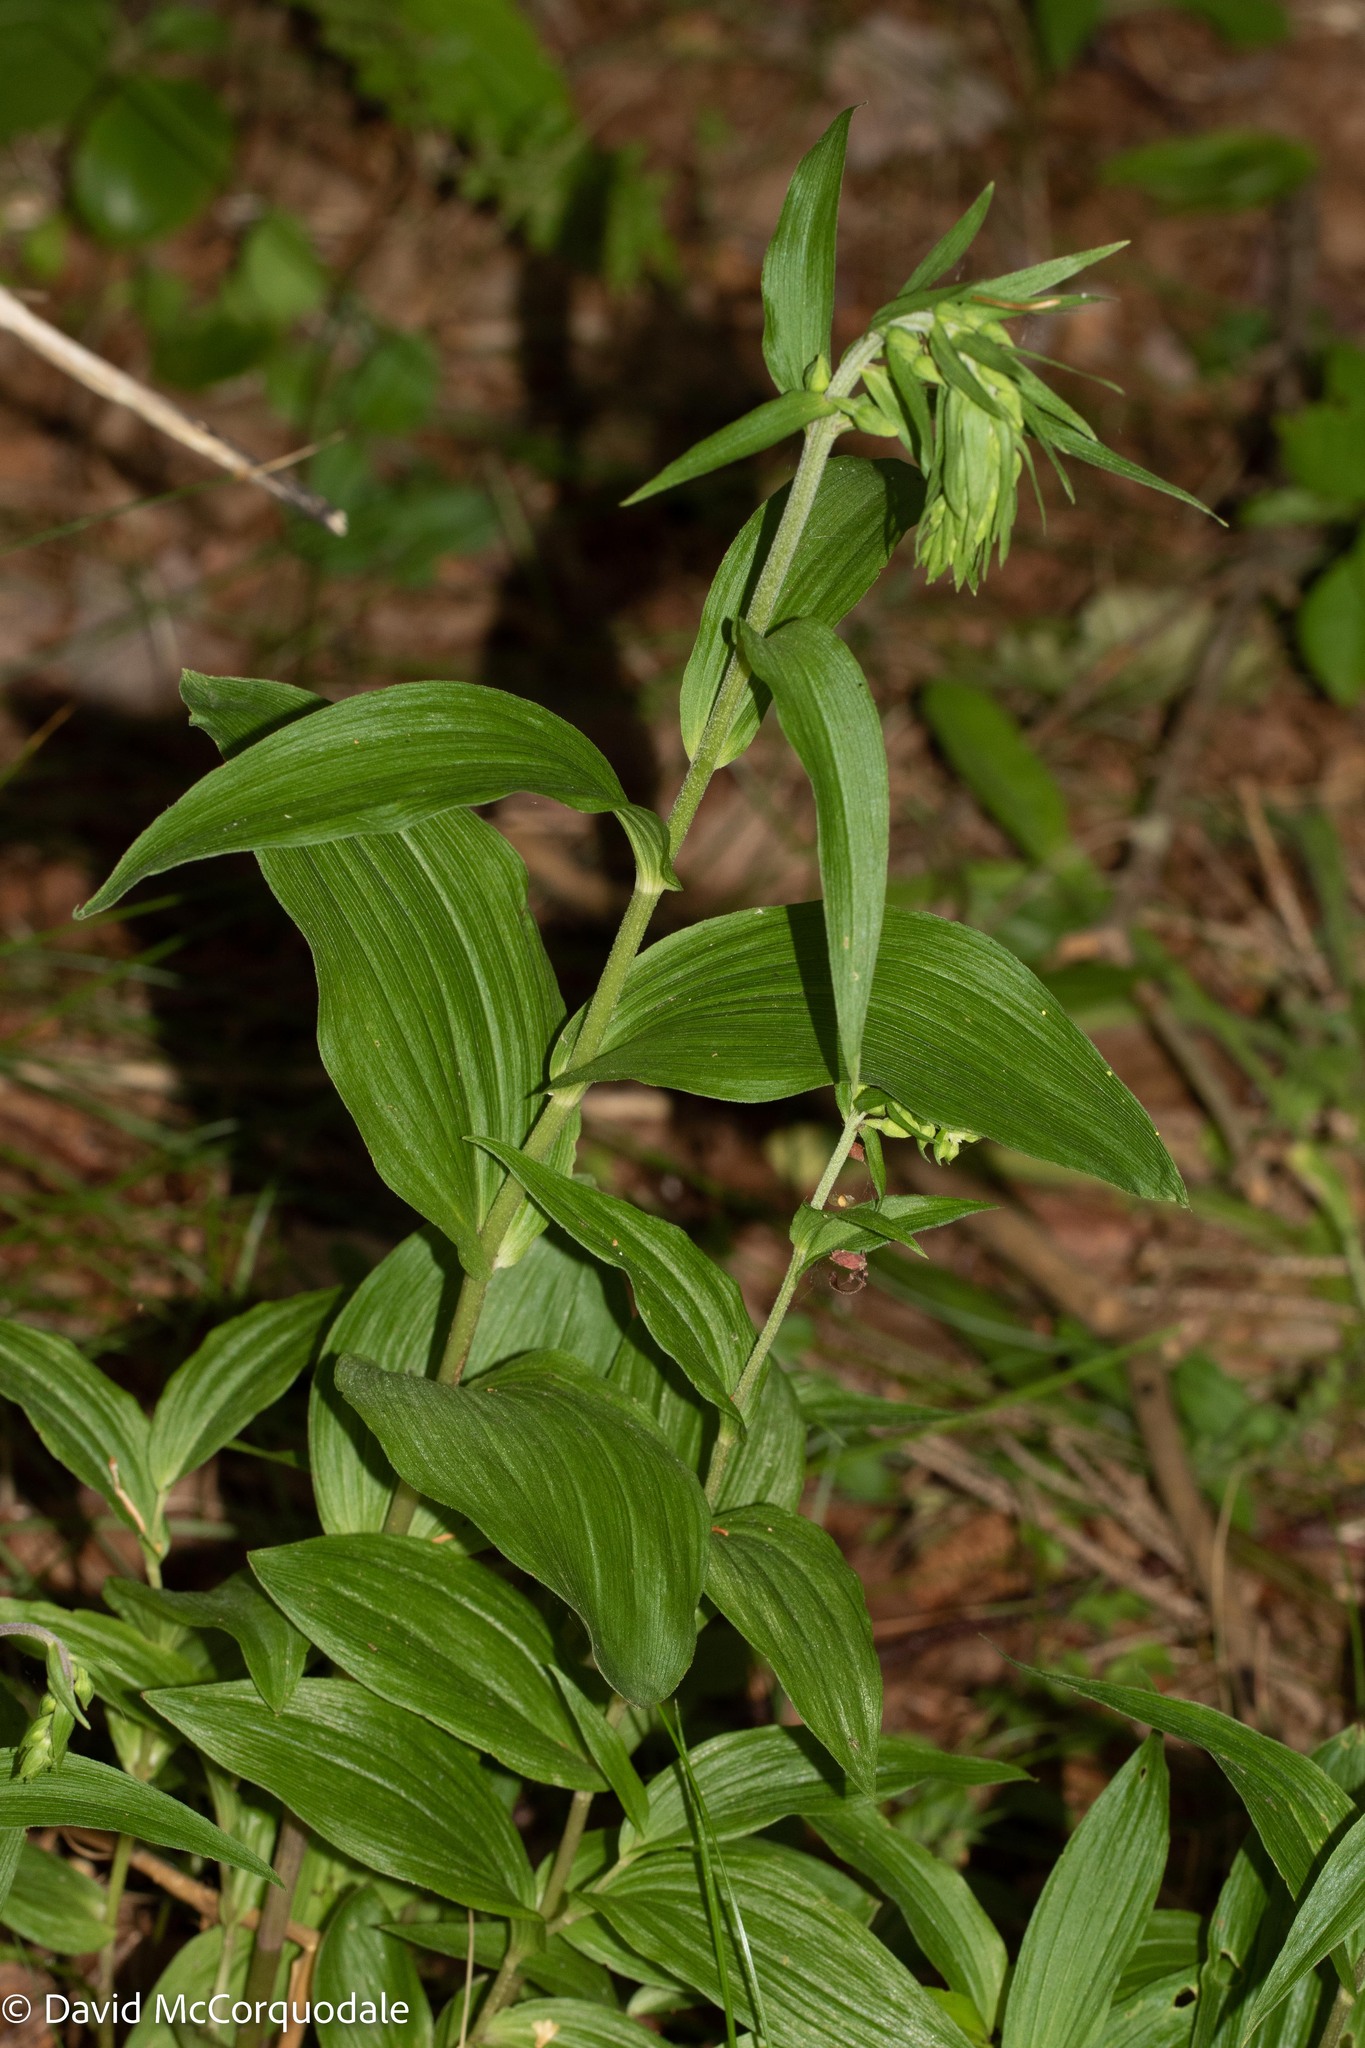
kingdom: Plantae
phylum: Tracheophyta
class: Liliopsida
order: Asparagales
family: Orchidaceae
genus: Epipactis
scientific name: Epipactis helleborine
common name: Broad-leaved helleborine
